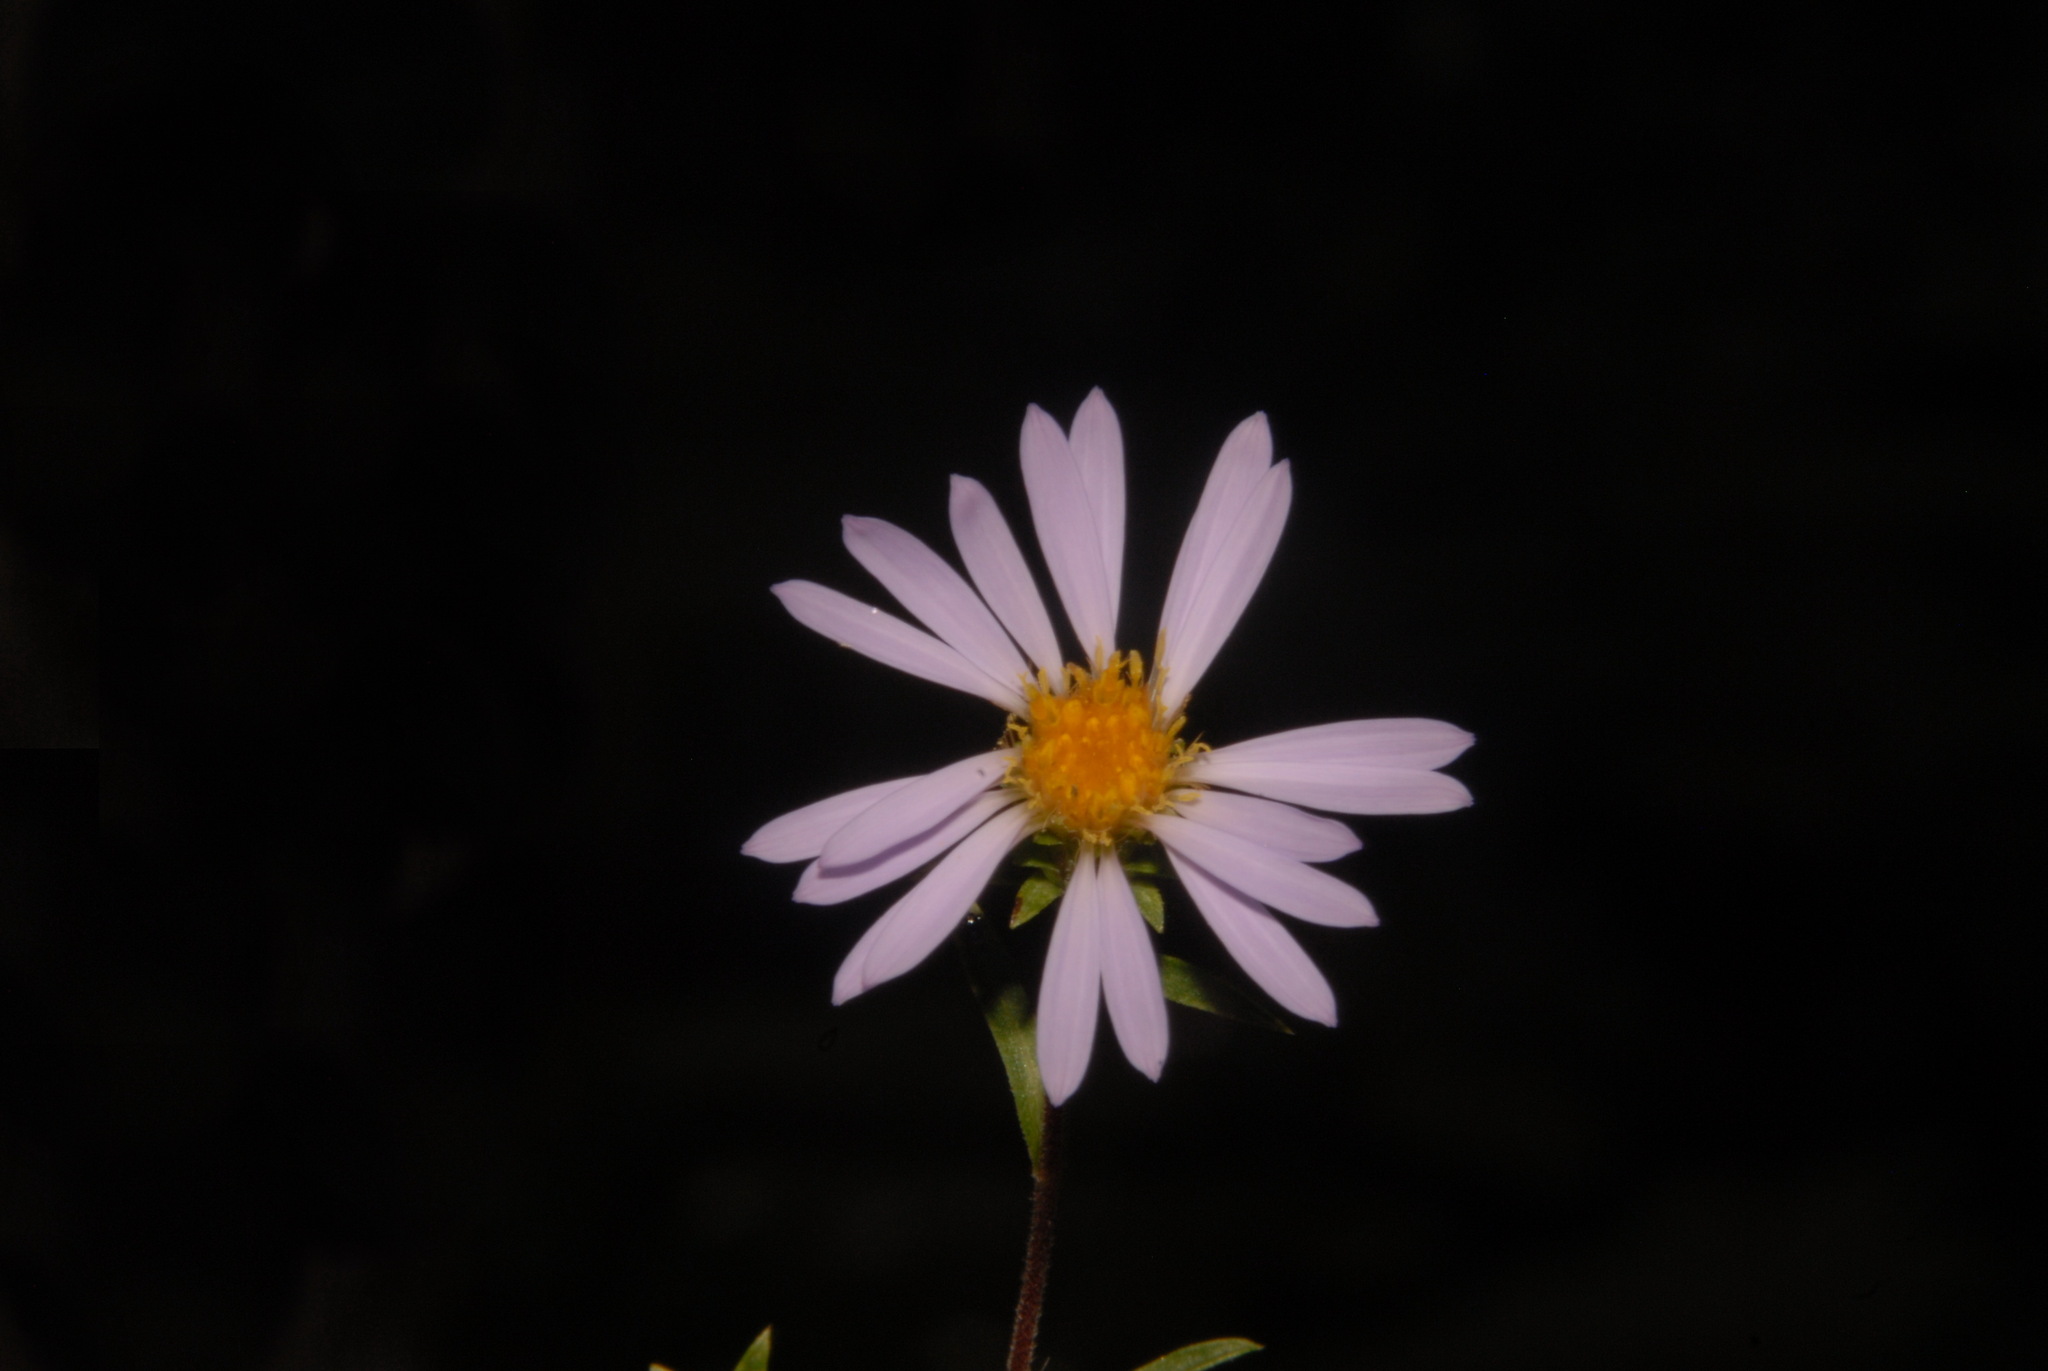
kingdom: Plantae
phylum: Tracheophyta
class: Magnoliopsida
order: Asterales
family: Asteraceae
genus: Eurybia
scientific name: Eurybia surculosa
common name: Creeping aster
